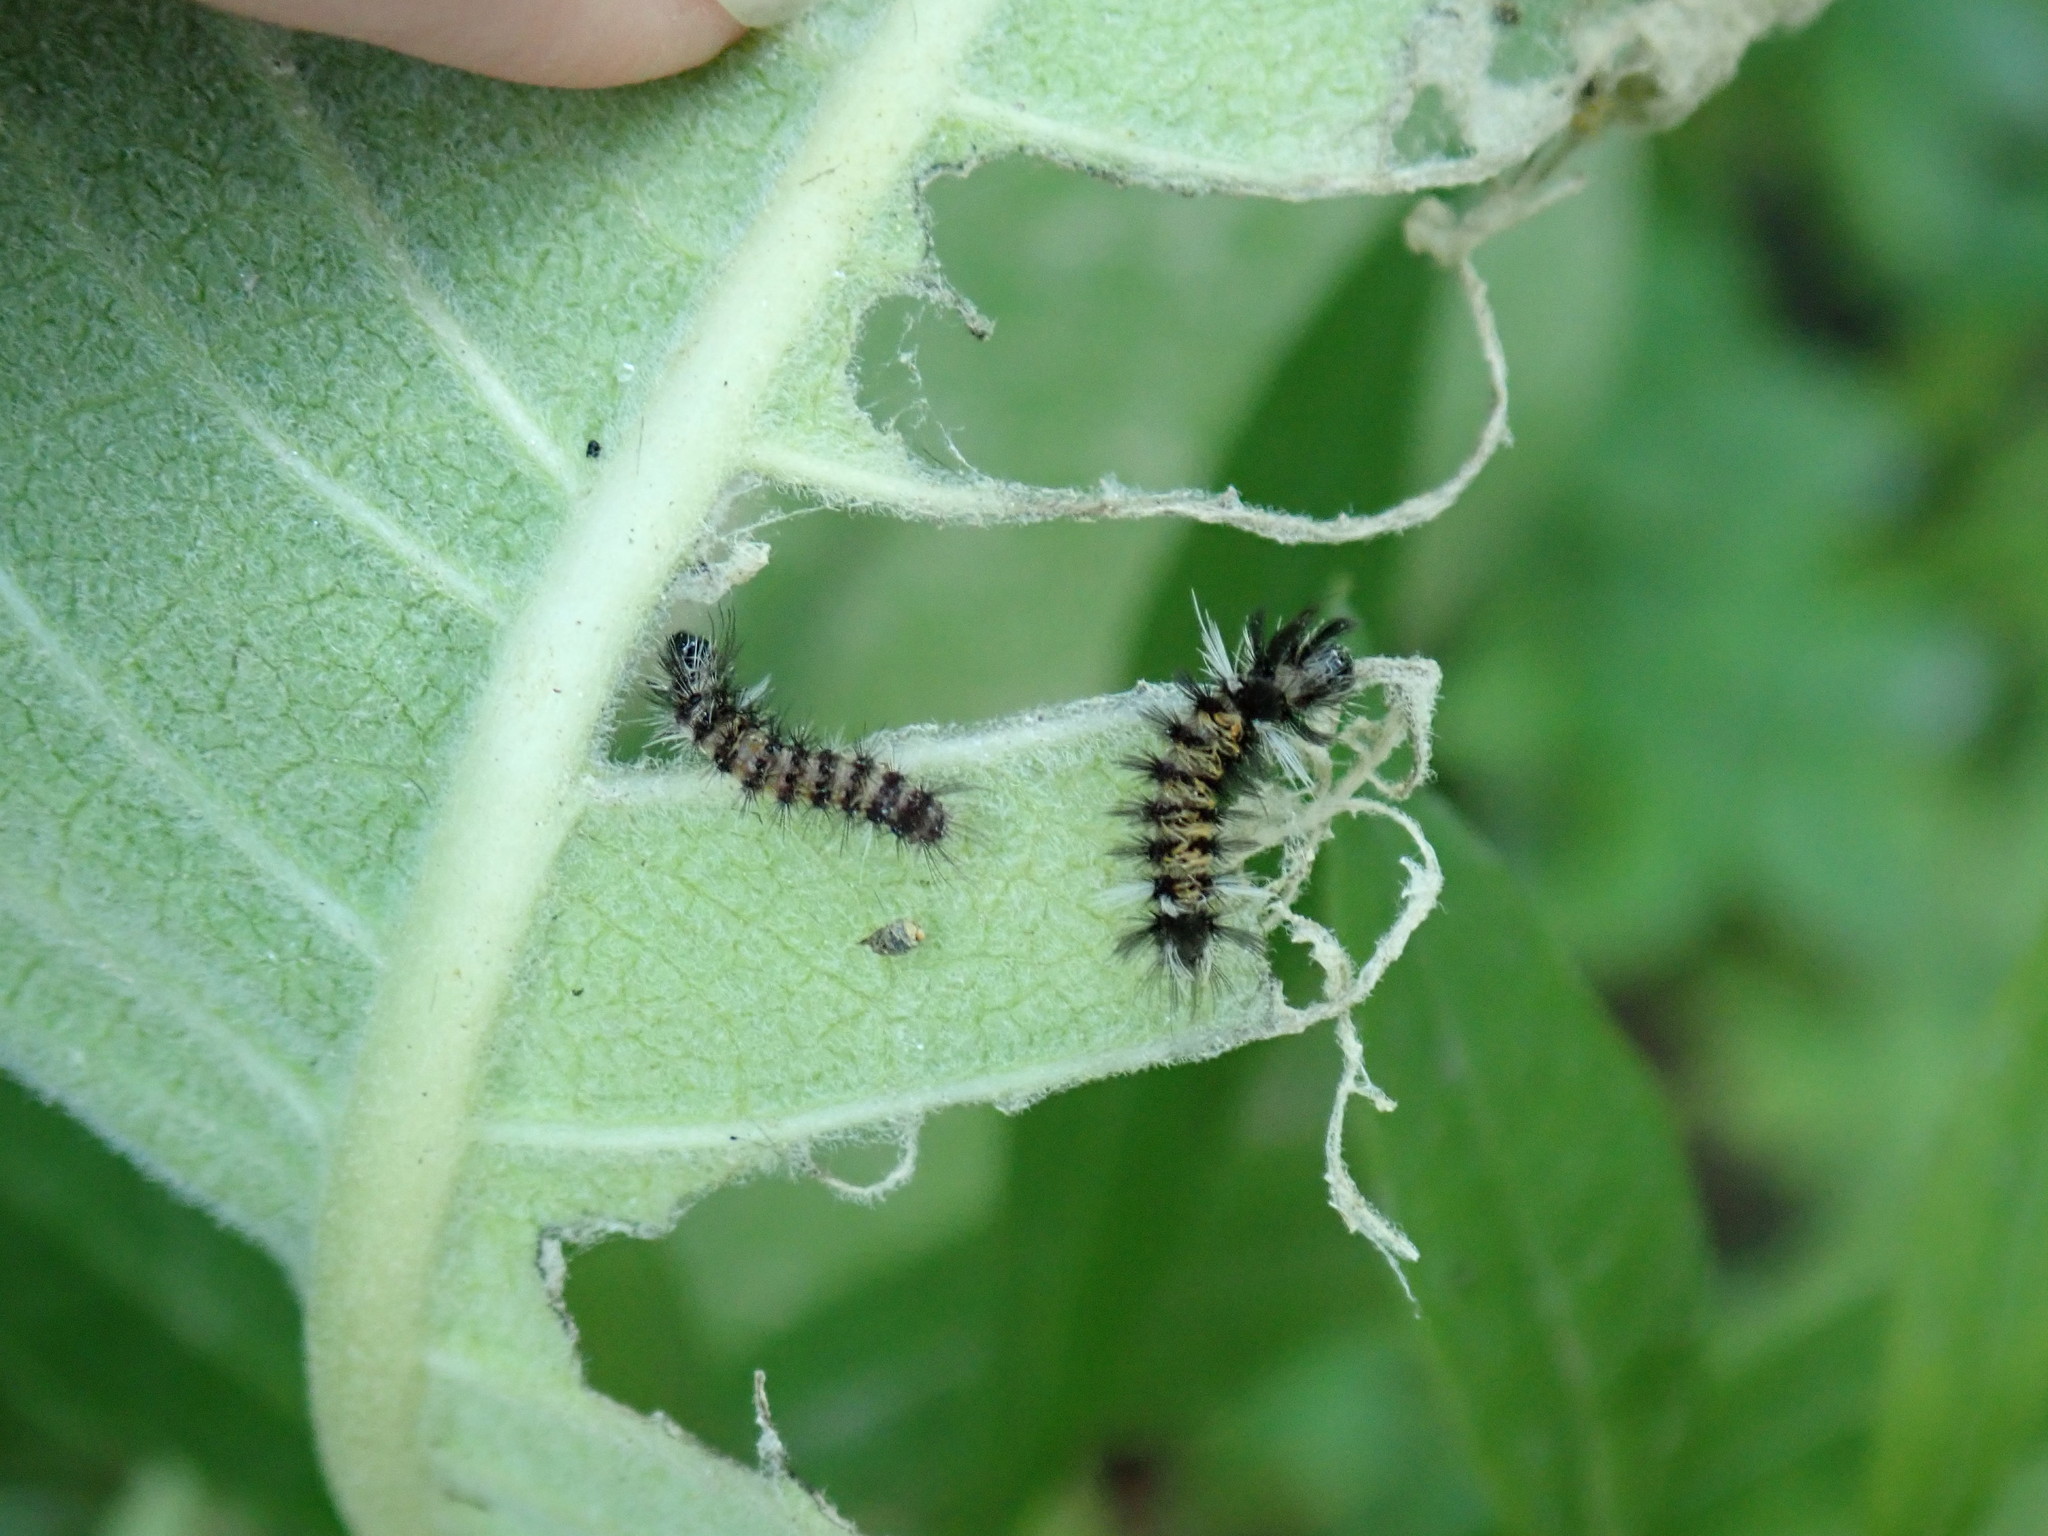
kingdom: Animalia
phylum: Arthropoda
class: Insecta
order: Lepidoptera
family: Erebidae
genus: Euchaetes
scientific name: Euchaetes egle
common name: Milkweed tussock moth
